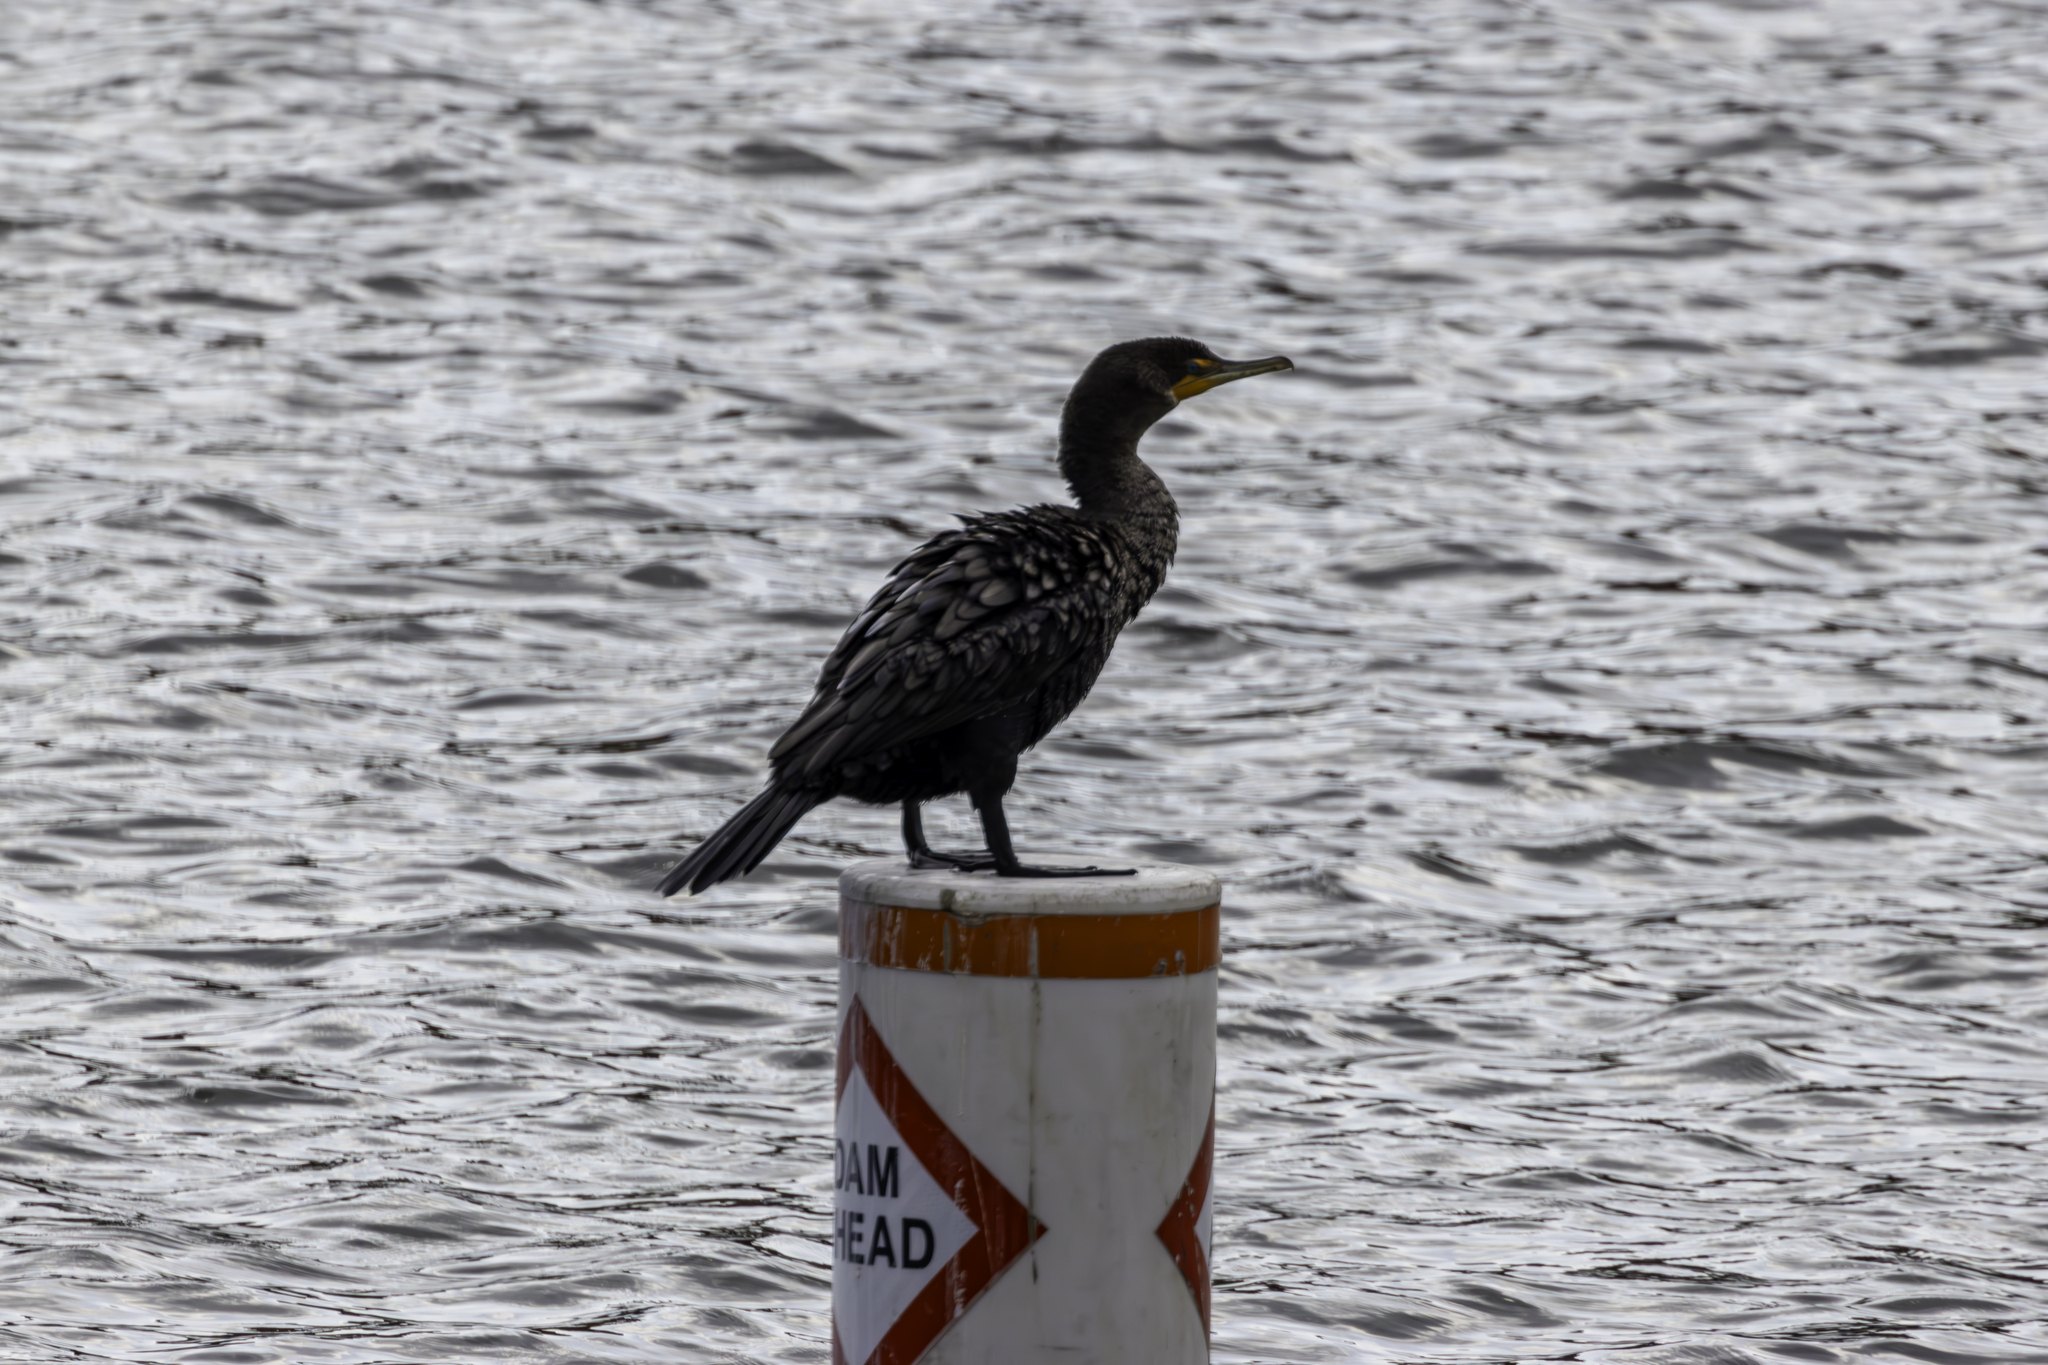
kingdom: Animalia
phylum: Chordata
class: Aves
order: Suliformes
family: Phalacrocoracidae
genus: Phalacrocorax
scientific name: Phalacrocorax auritus
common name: Double-crested cormorant
